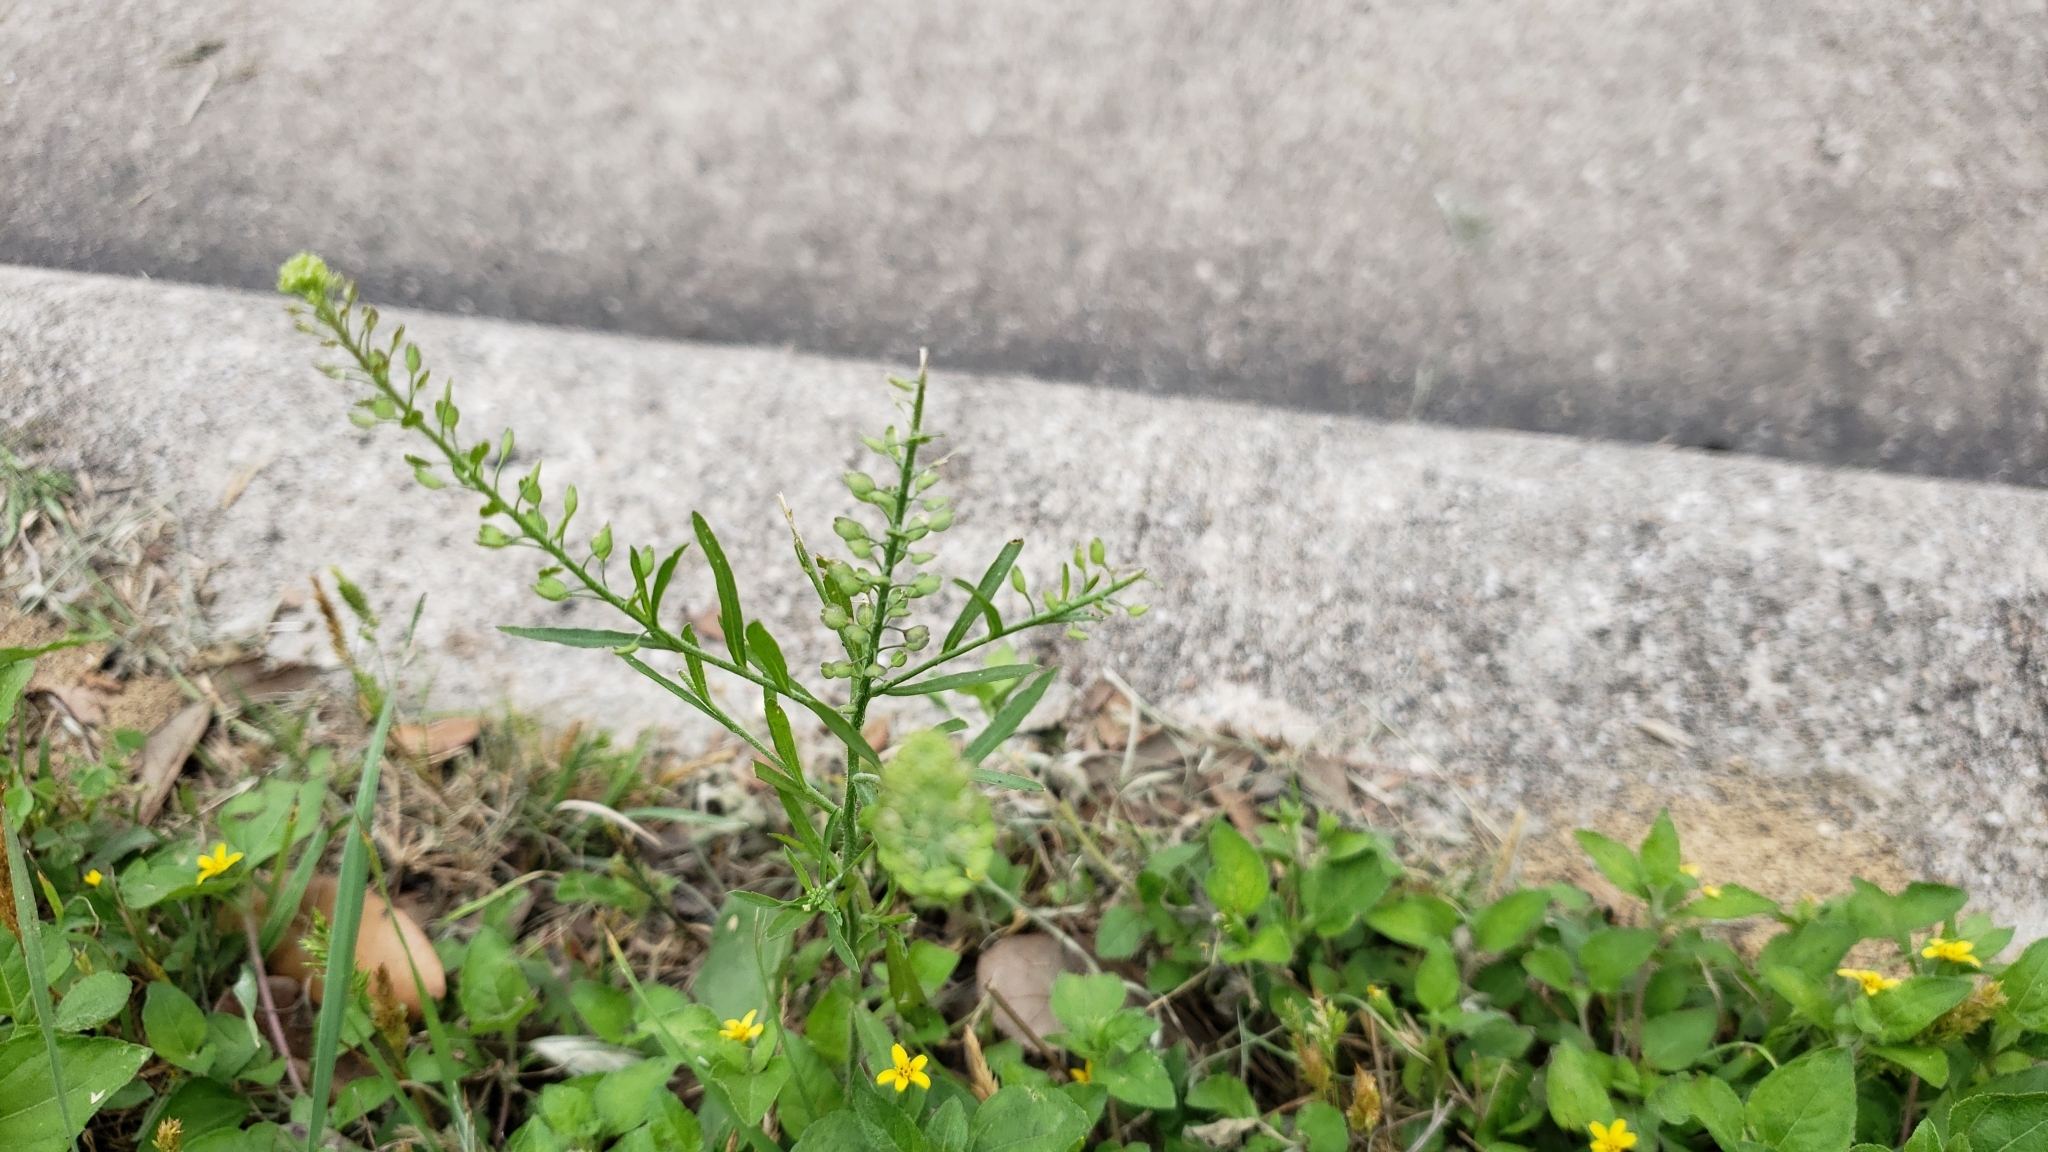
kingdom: Plantae
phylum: Tracheophyta
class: Magnoliopsida
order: Brassicales
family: Brassicaceae
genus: Lepidium
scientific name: Lepidium virginicum
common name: Least pepperwort
